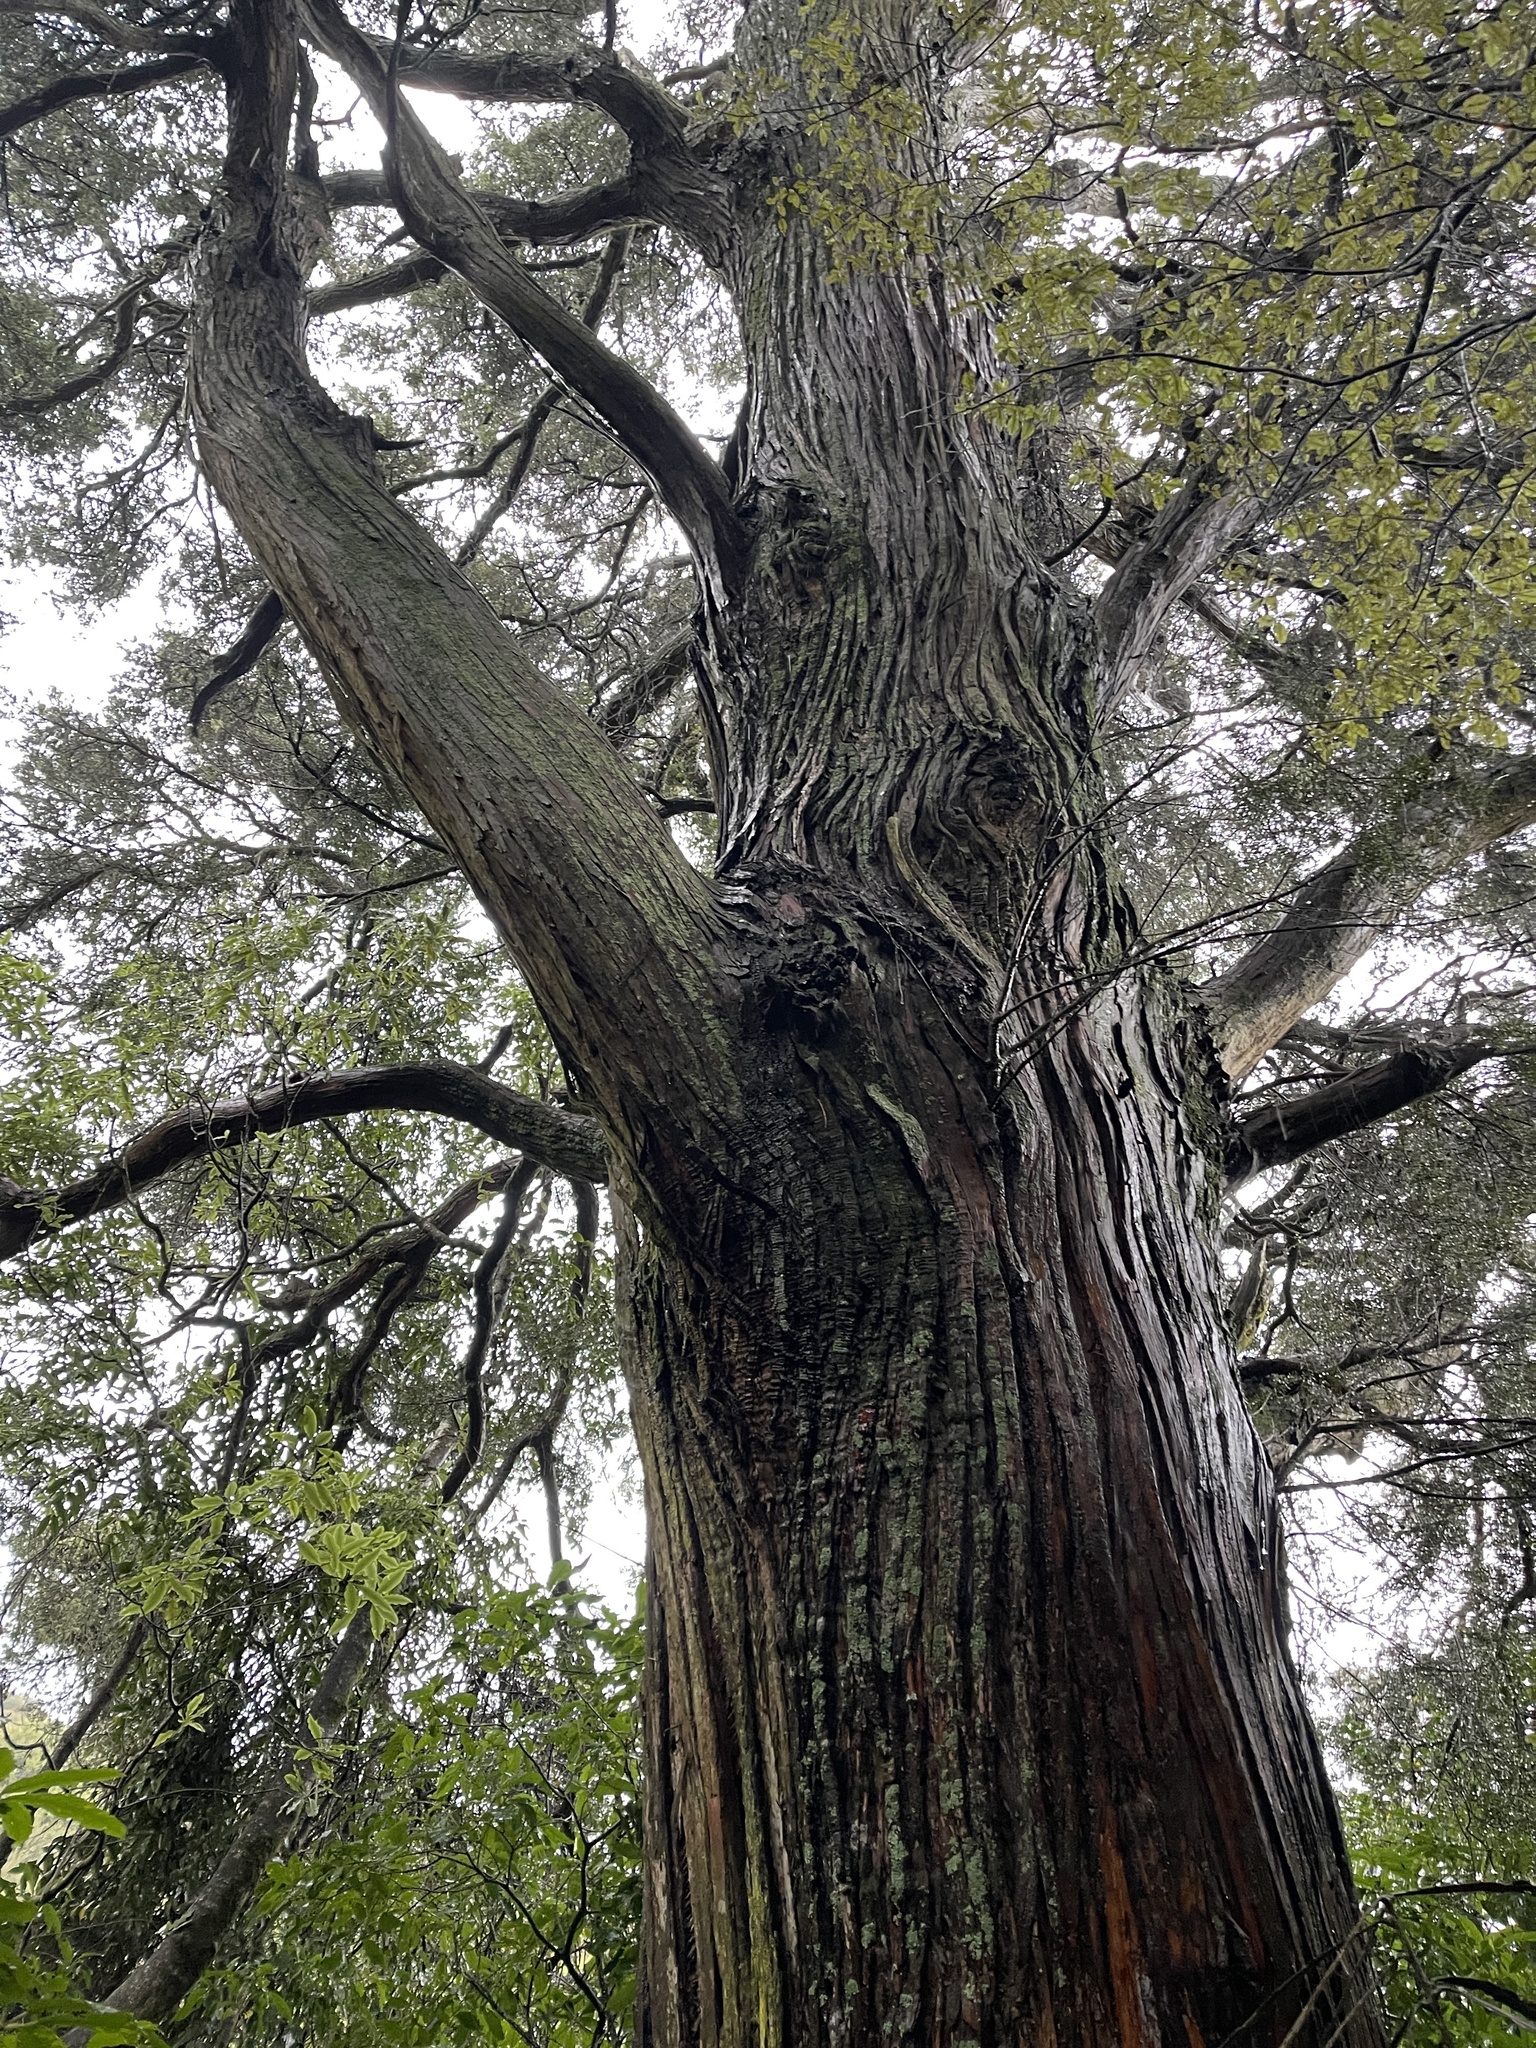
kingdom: Plantae
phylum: Tracheophyta
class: Pinopsida
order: Pinales
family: Podocarpaceae
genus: Podocarpus
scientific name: Podocarpus totara
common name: Totara
